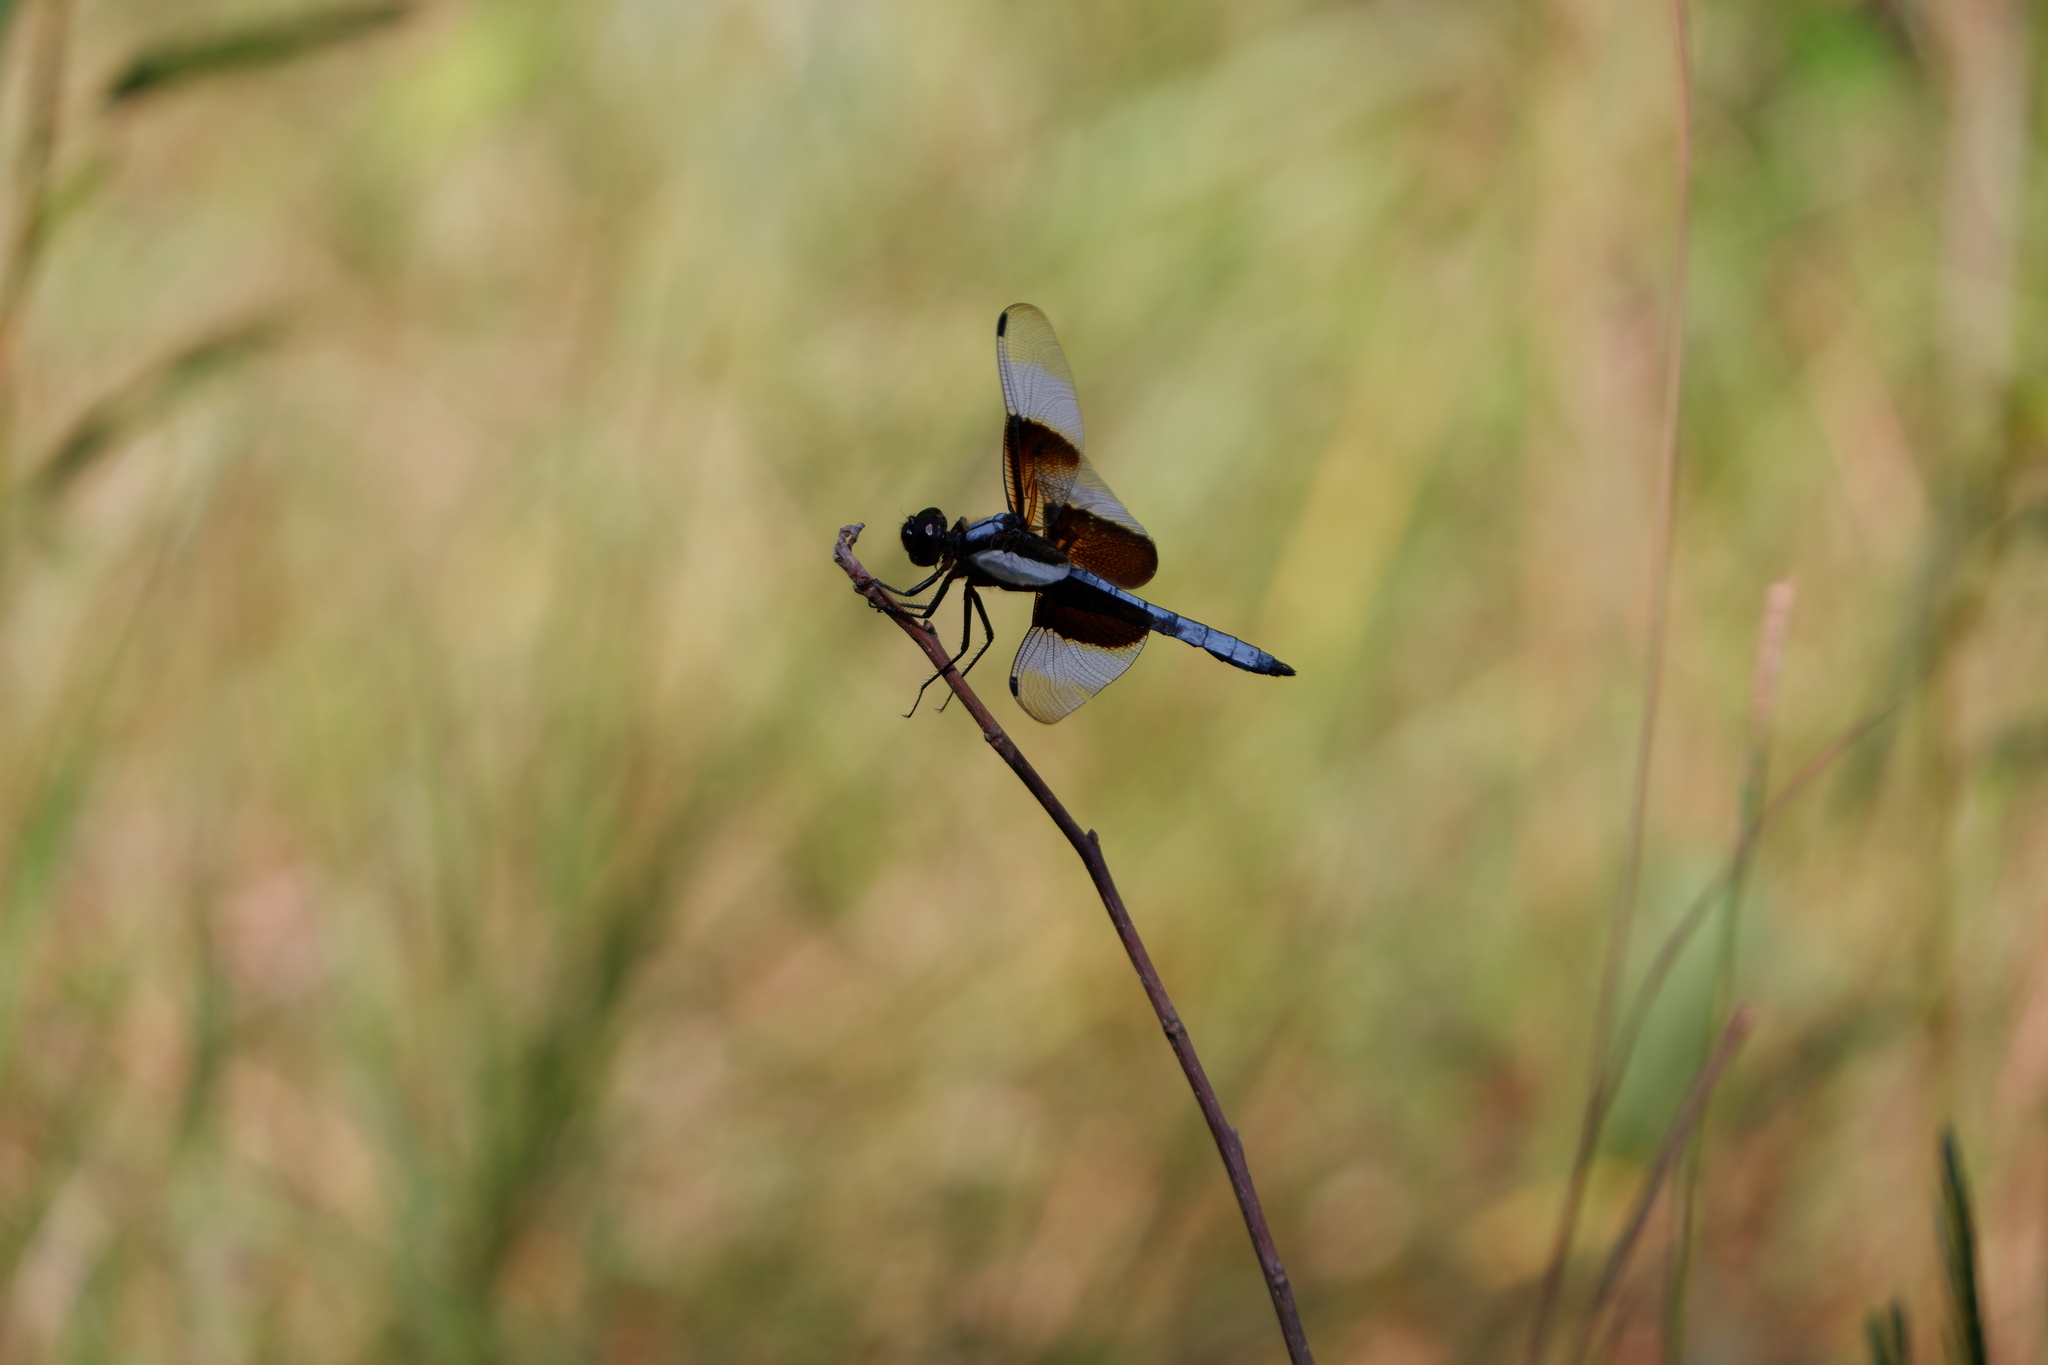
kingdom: Animalia
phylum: Arthropoda
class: Insecta
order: Odonata
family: Libellulidae
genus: Libellula
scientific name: Libellula luctuosa
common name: Widow skimmer
